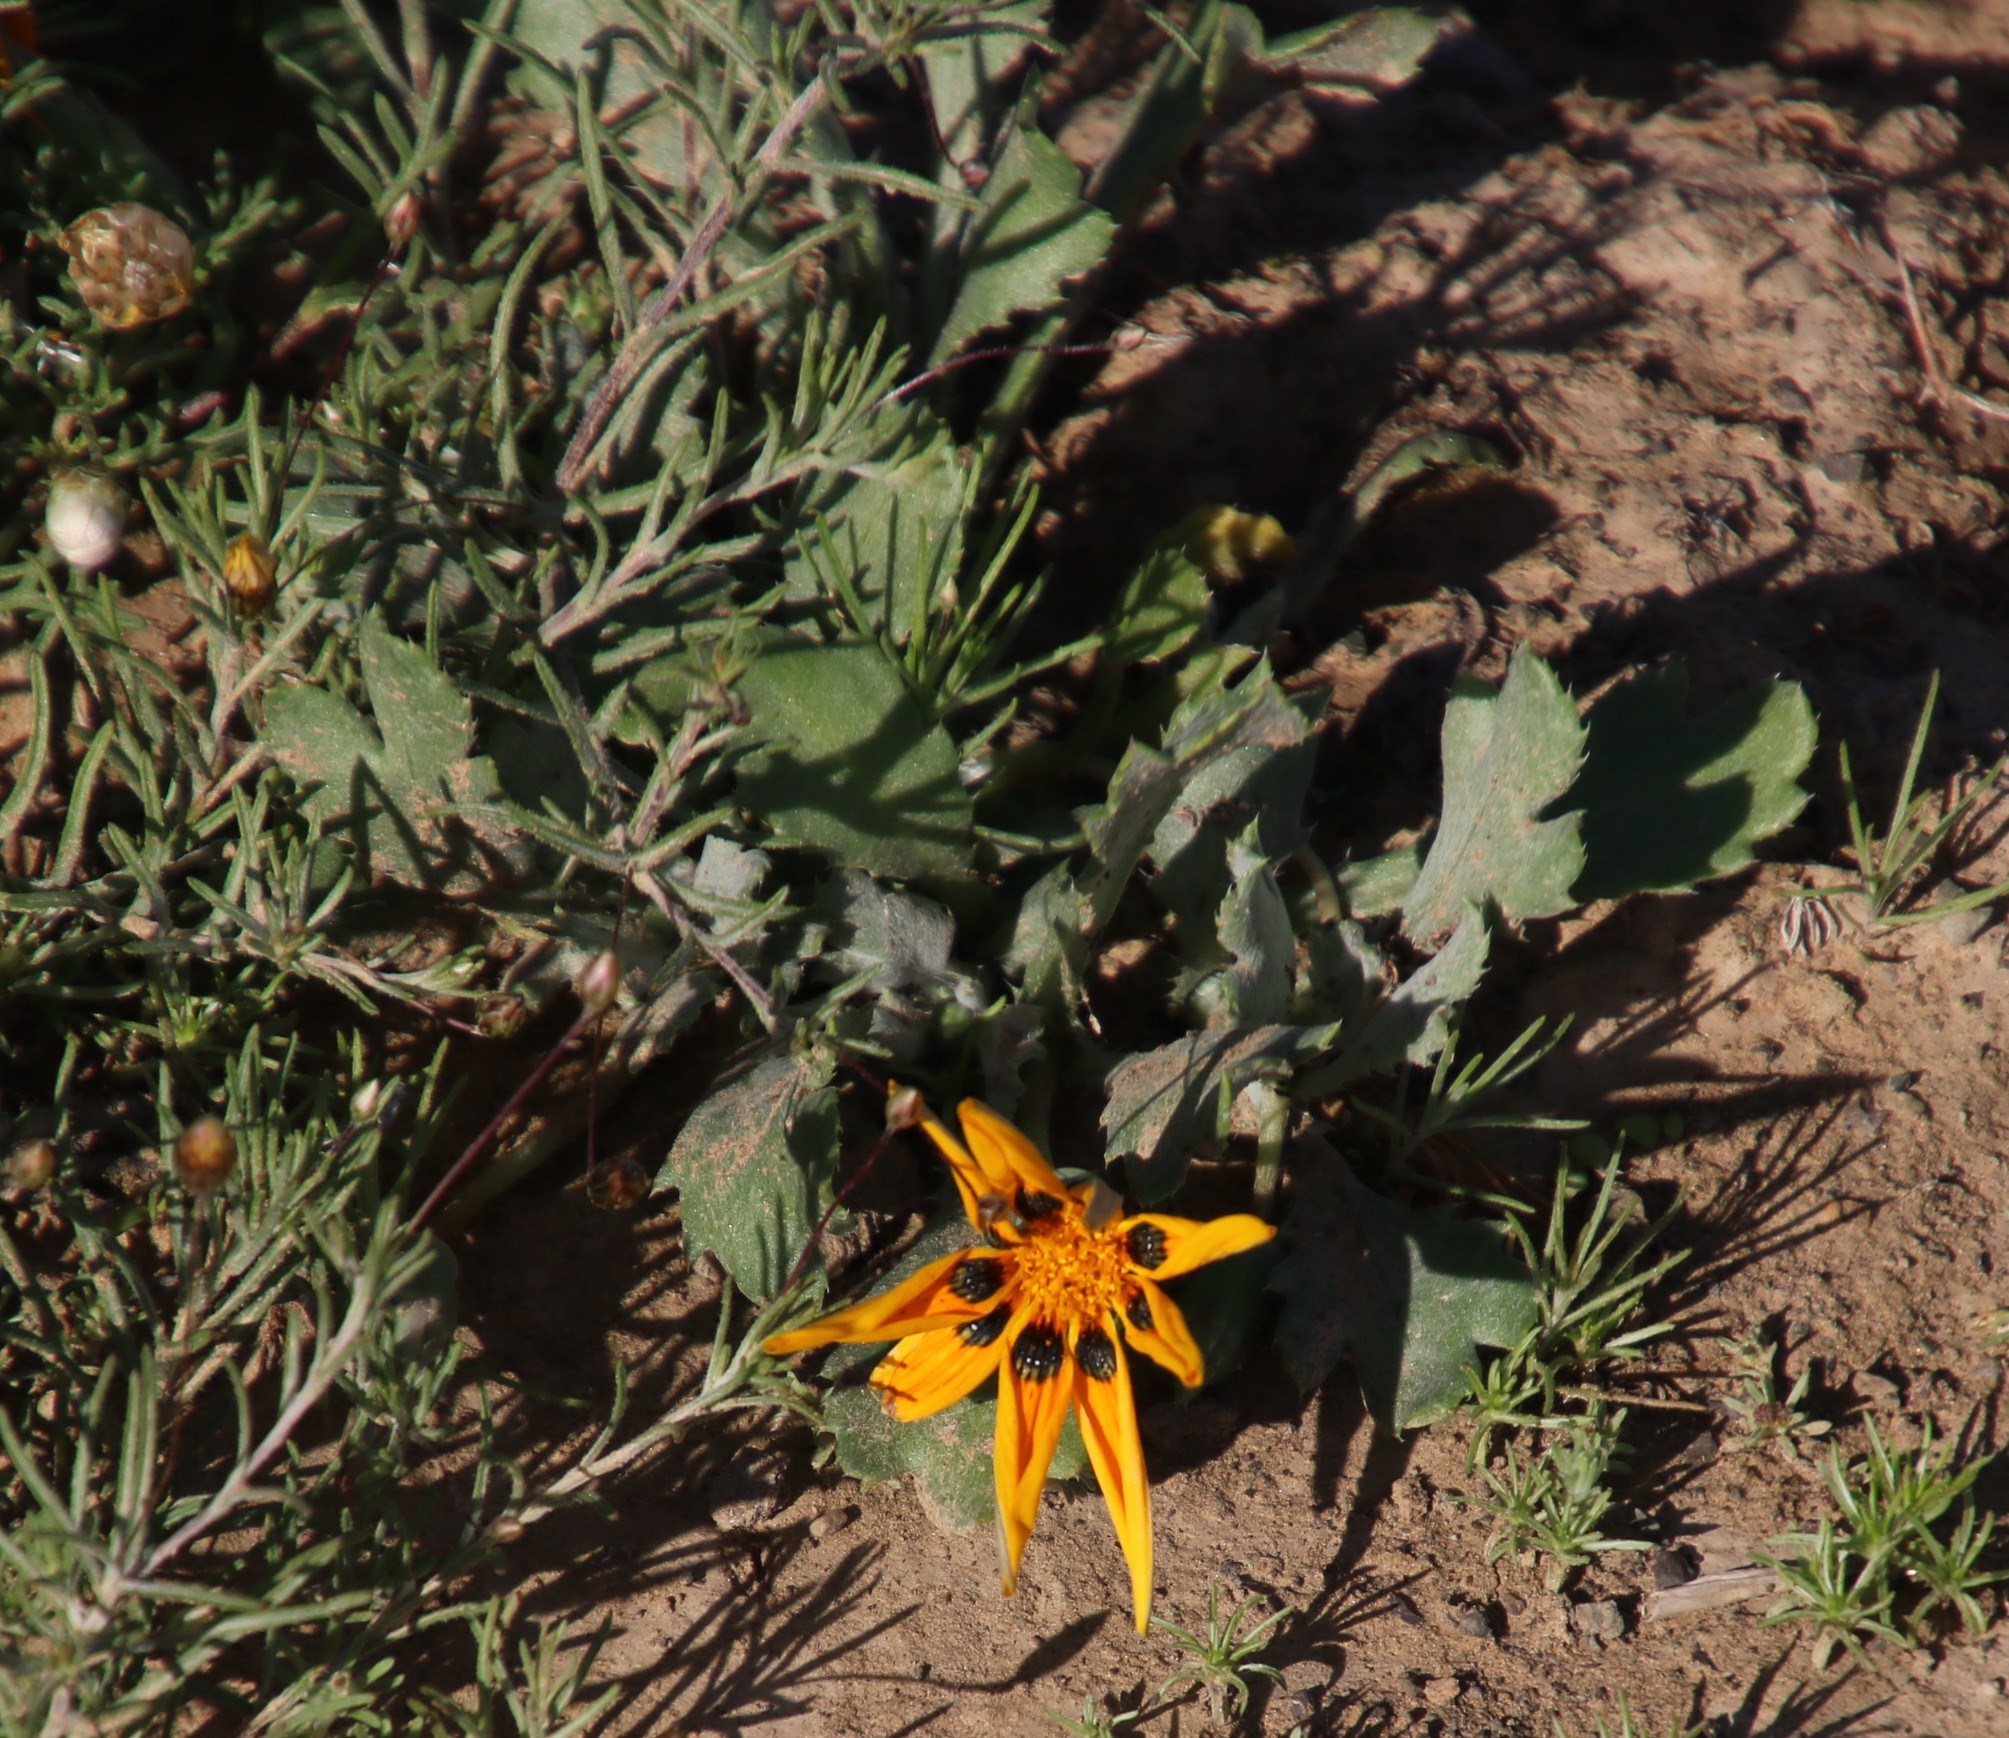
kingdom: Plantae
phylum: Tracheophyta
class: Magnoliopsida
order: Asterales
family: Asteraceae
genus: Gazania
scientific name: Gazania lichtensteinii
